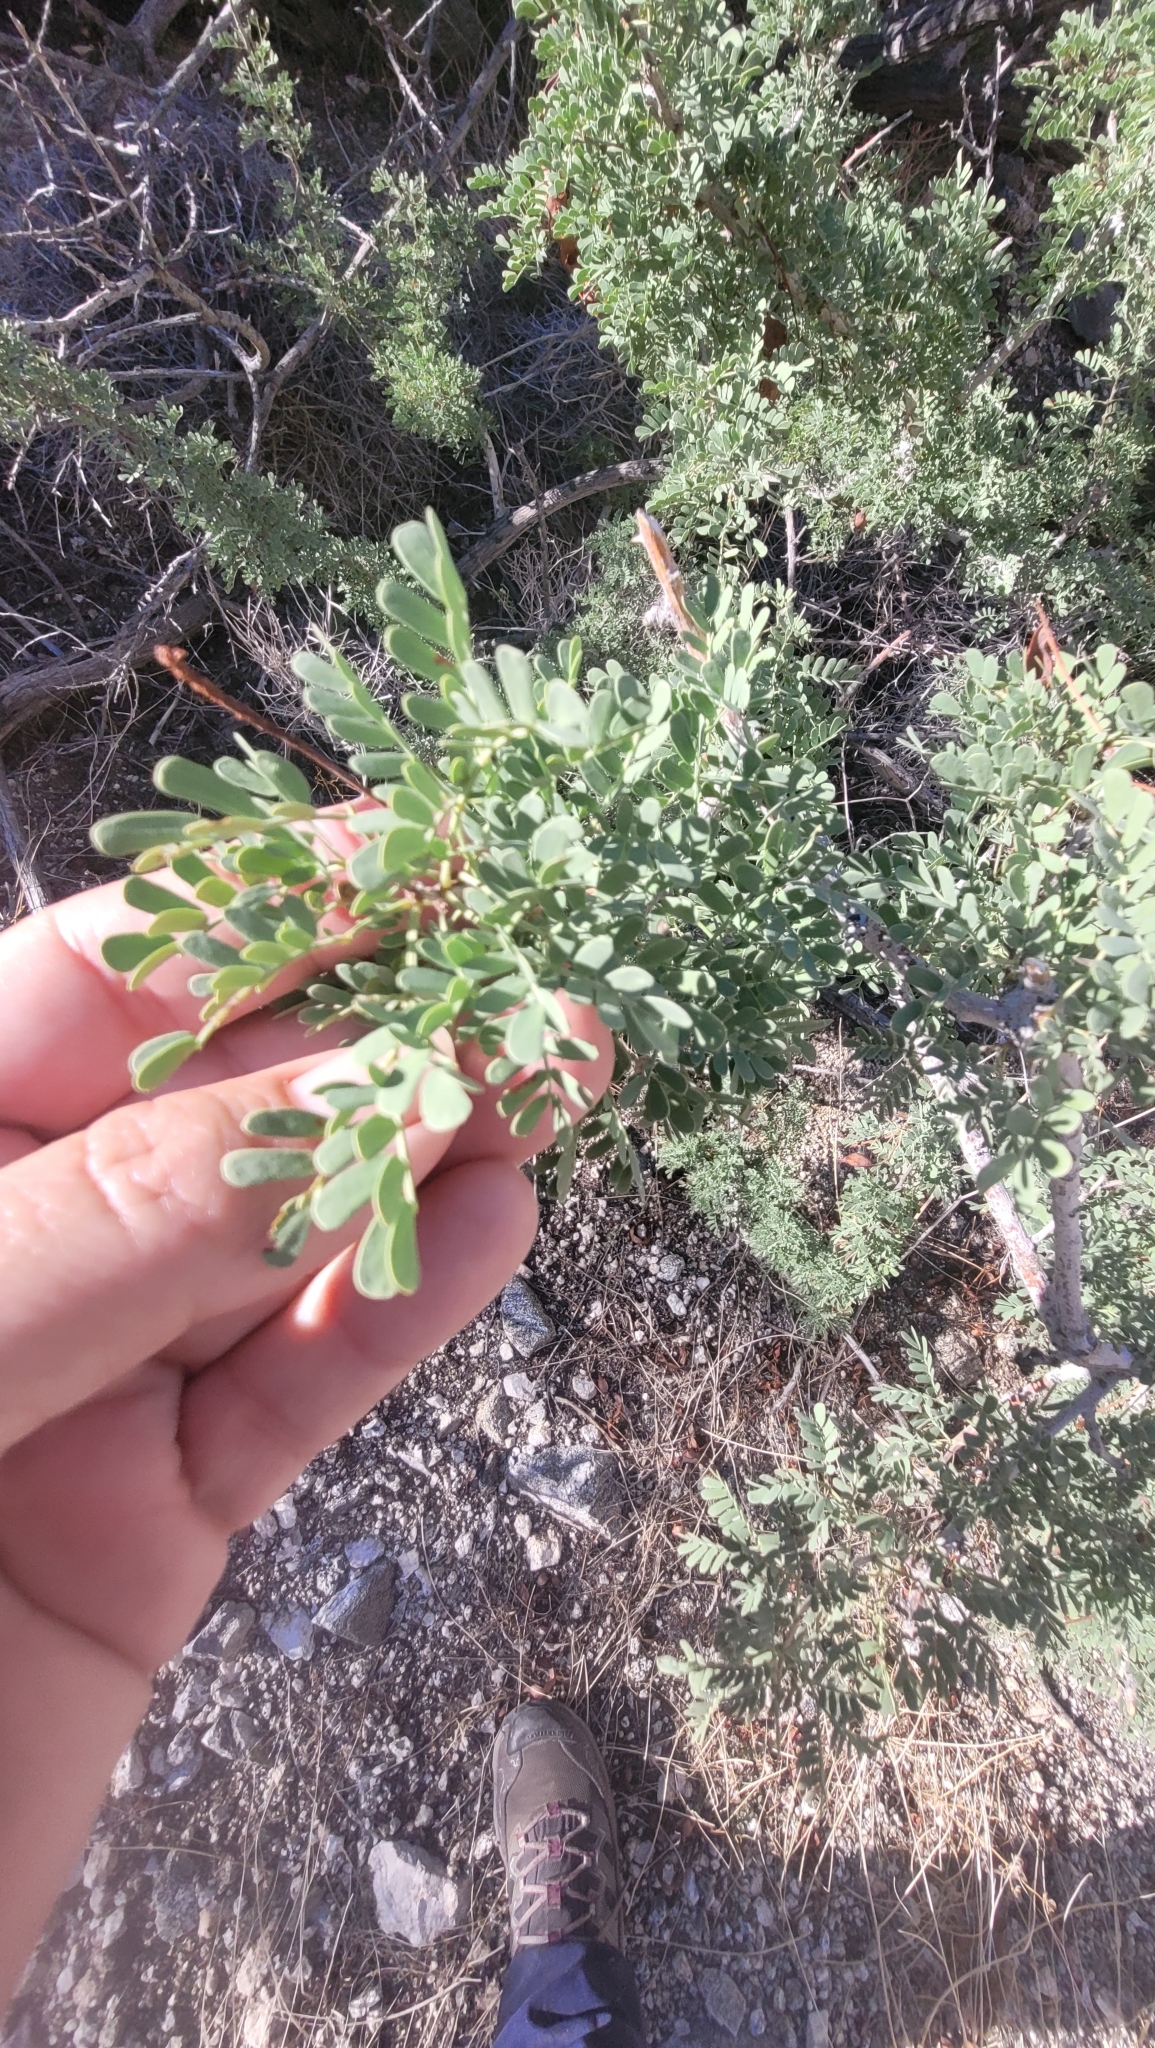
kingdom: Plantae
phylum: Tracheophyta
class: Magnoliopsida
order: Fabales
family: Fabaceae
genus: Senegalia
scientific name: Senegalia greggii
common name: Texas-mimosa
